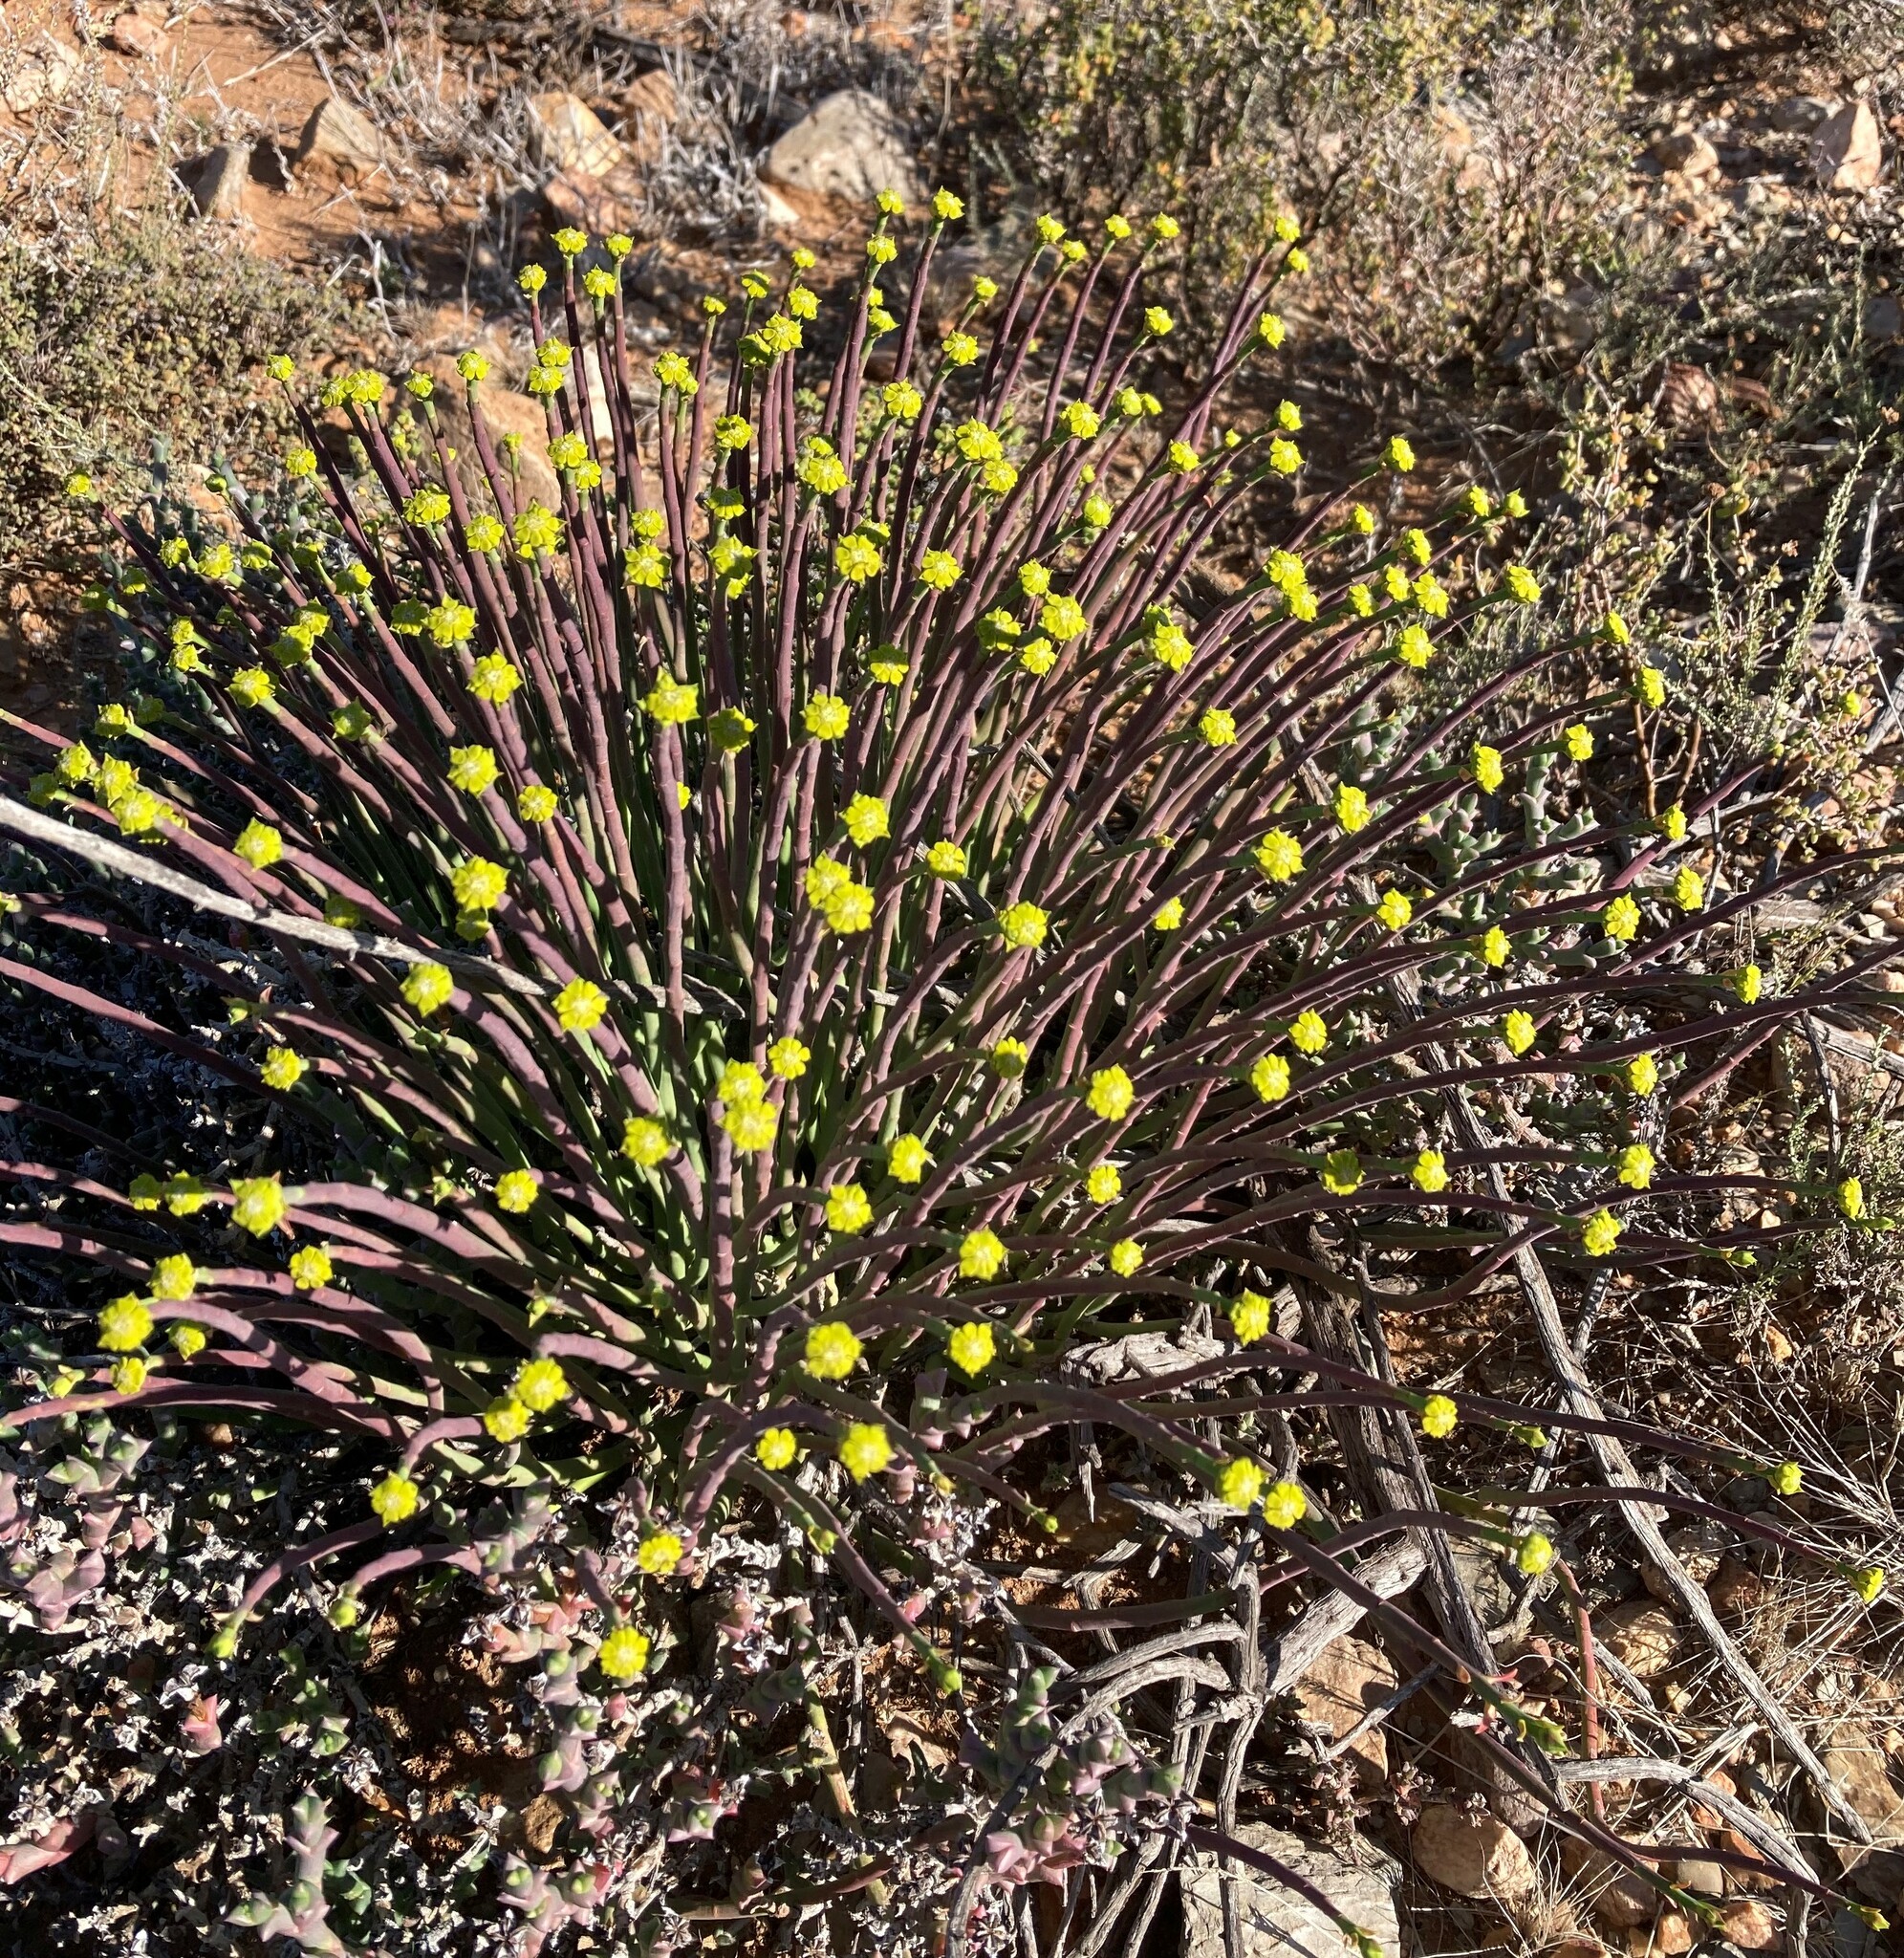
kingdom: Plantae
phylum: Tracheophyta
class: Magnoliopsida
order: Malpighiales
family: Euphorbiaceae
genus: Euphorbia
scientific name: Euphorbia mauritanica
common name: Jackal's-food
